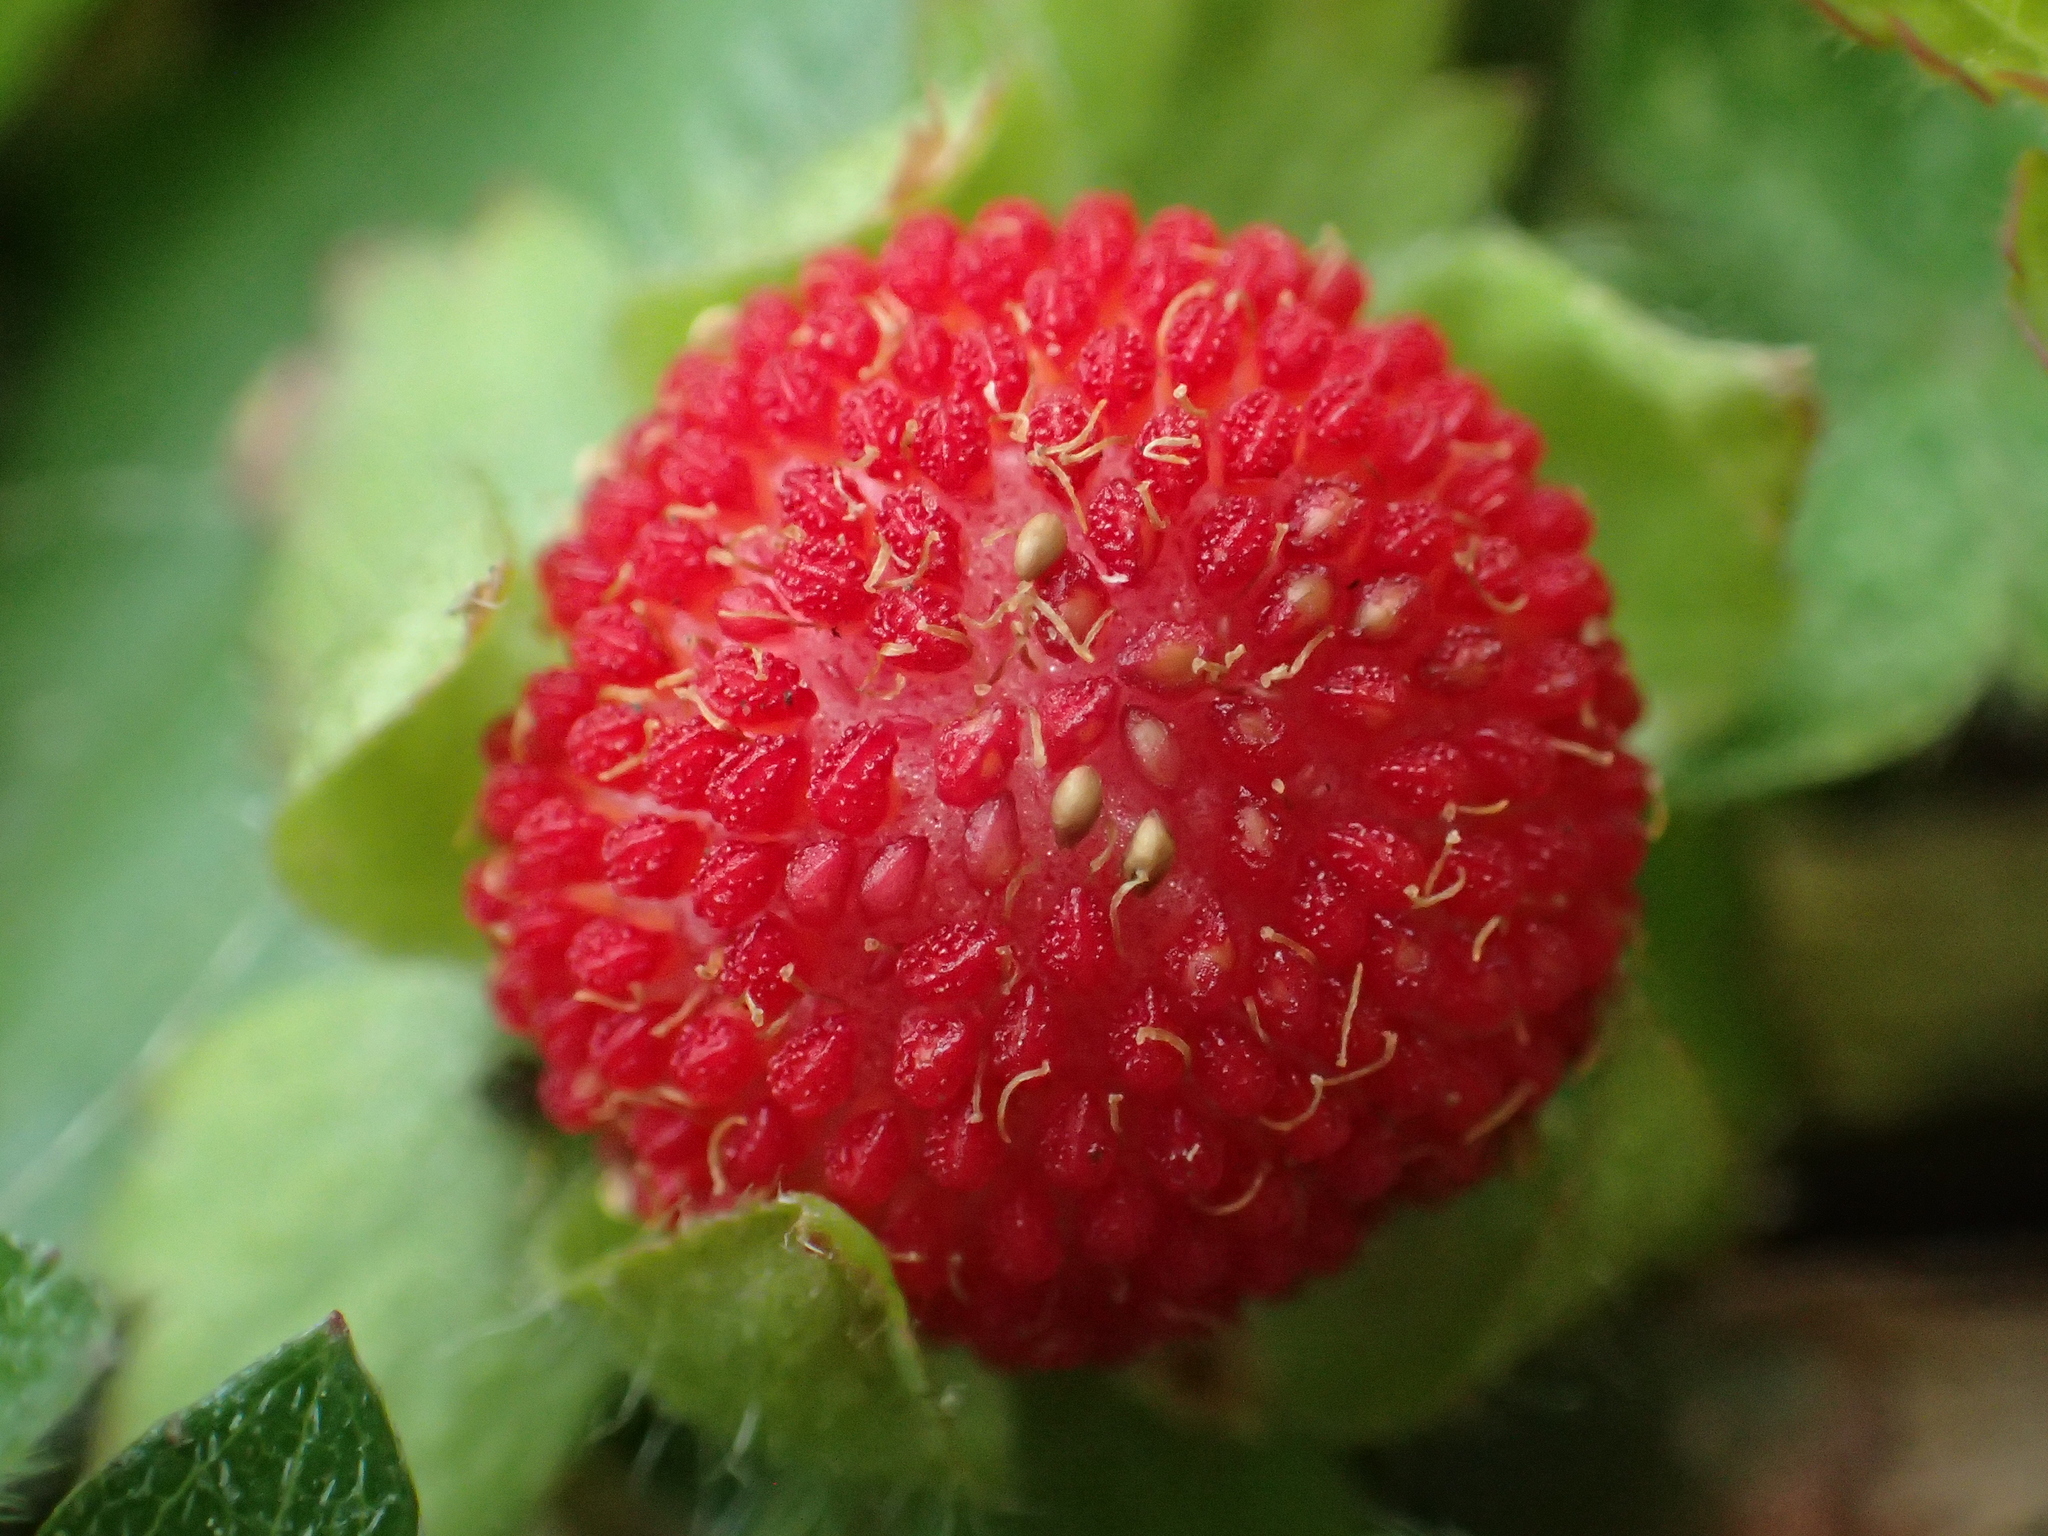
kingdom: Plantae
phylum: Tracheophyta
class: Magnoliopsida
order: Rosales
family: Rosaceae
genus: Potentilla
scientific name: Potentilla wallichiana
